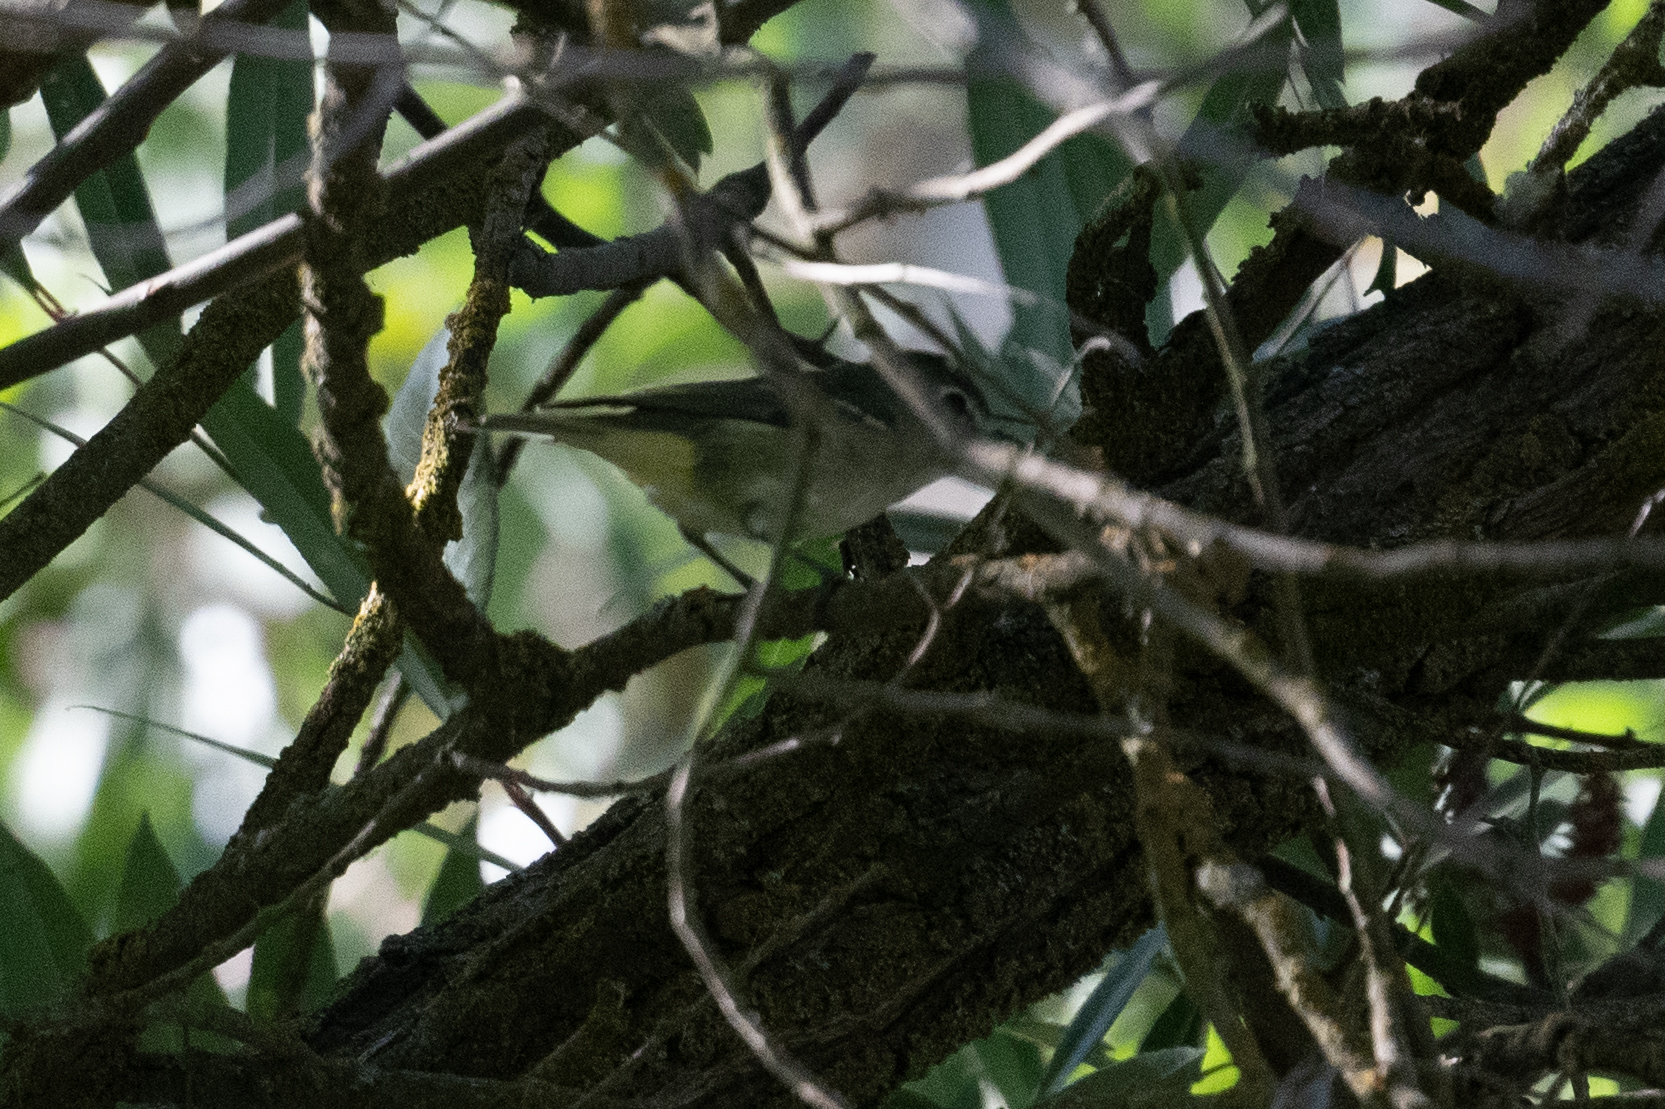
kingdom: Animalia
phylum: Chordata
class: Aves
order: Passeriformes
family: Vireonidae
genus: Vireo
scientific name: Vireo cassinii
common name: Cassin's vireo
